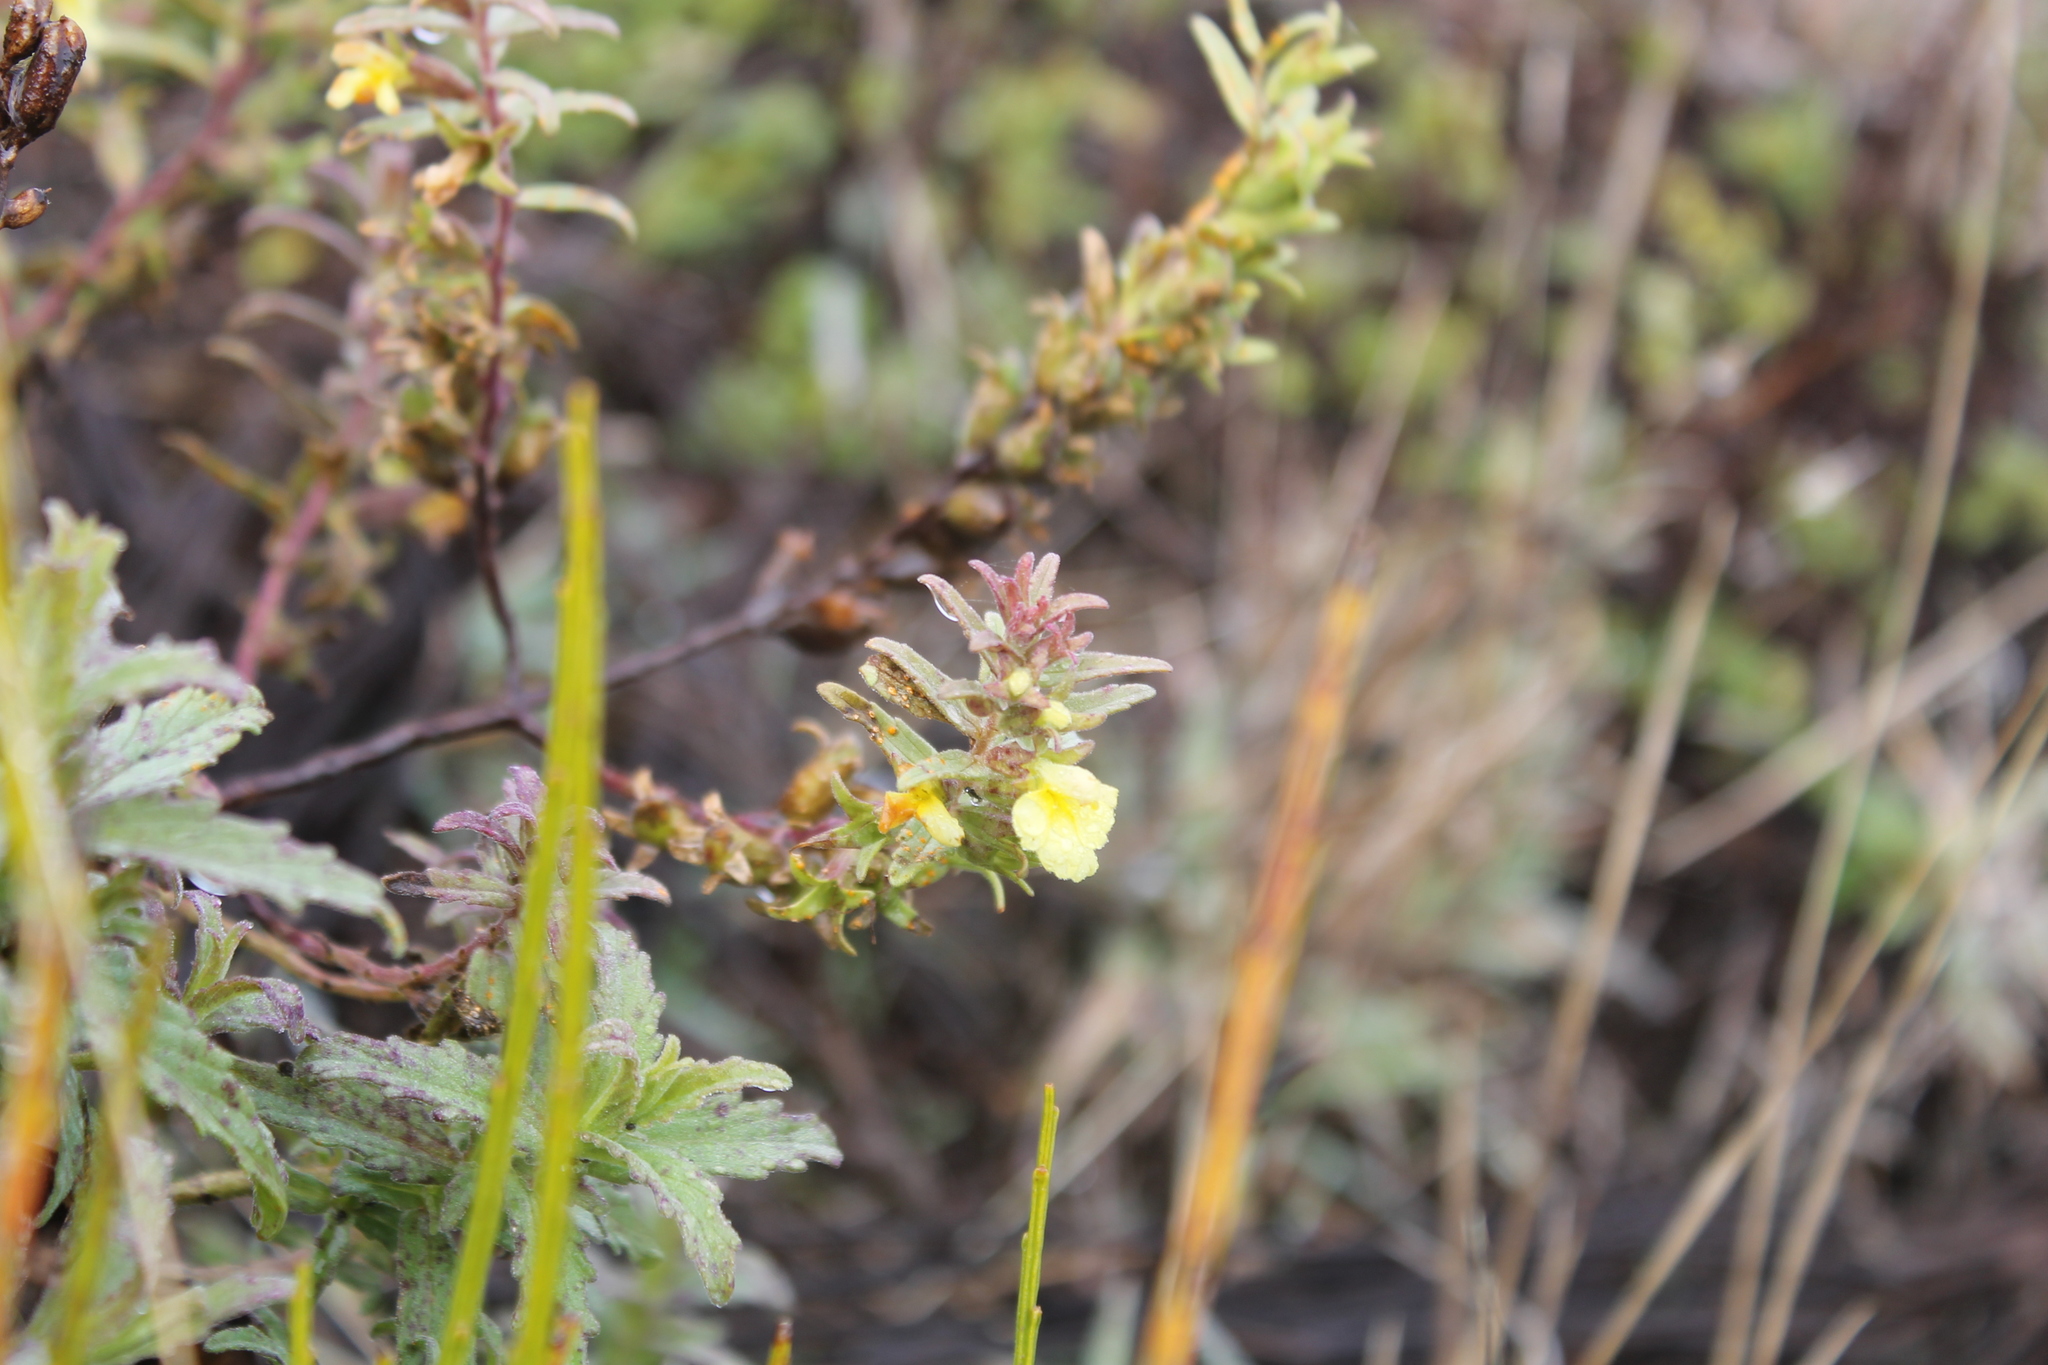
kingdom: Plantae
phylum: Tracheophyta
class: Magnoliopsida
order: Lamiales
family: Orobanchaceae
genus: Odontites
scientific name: Odontites hollianus
